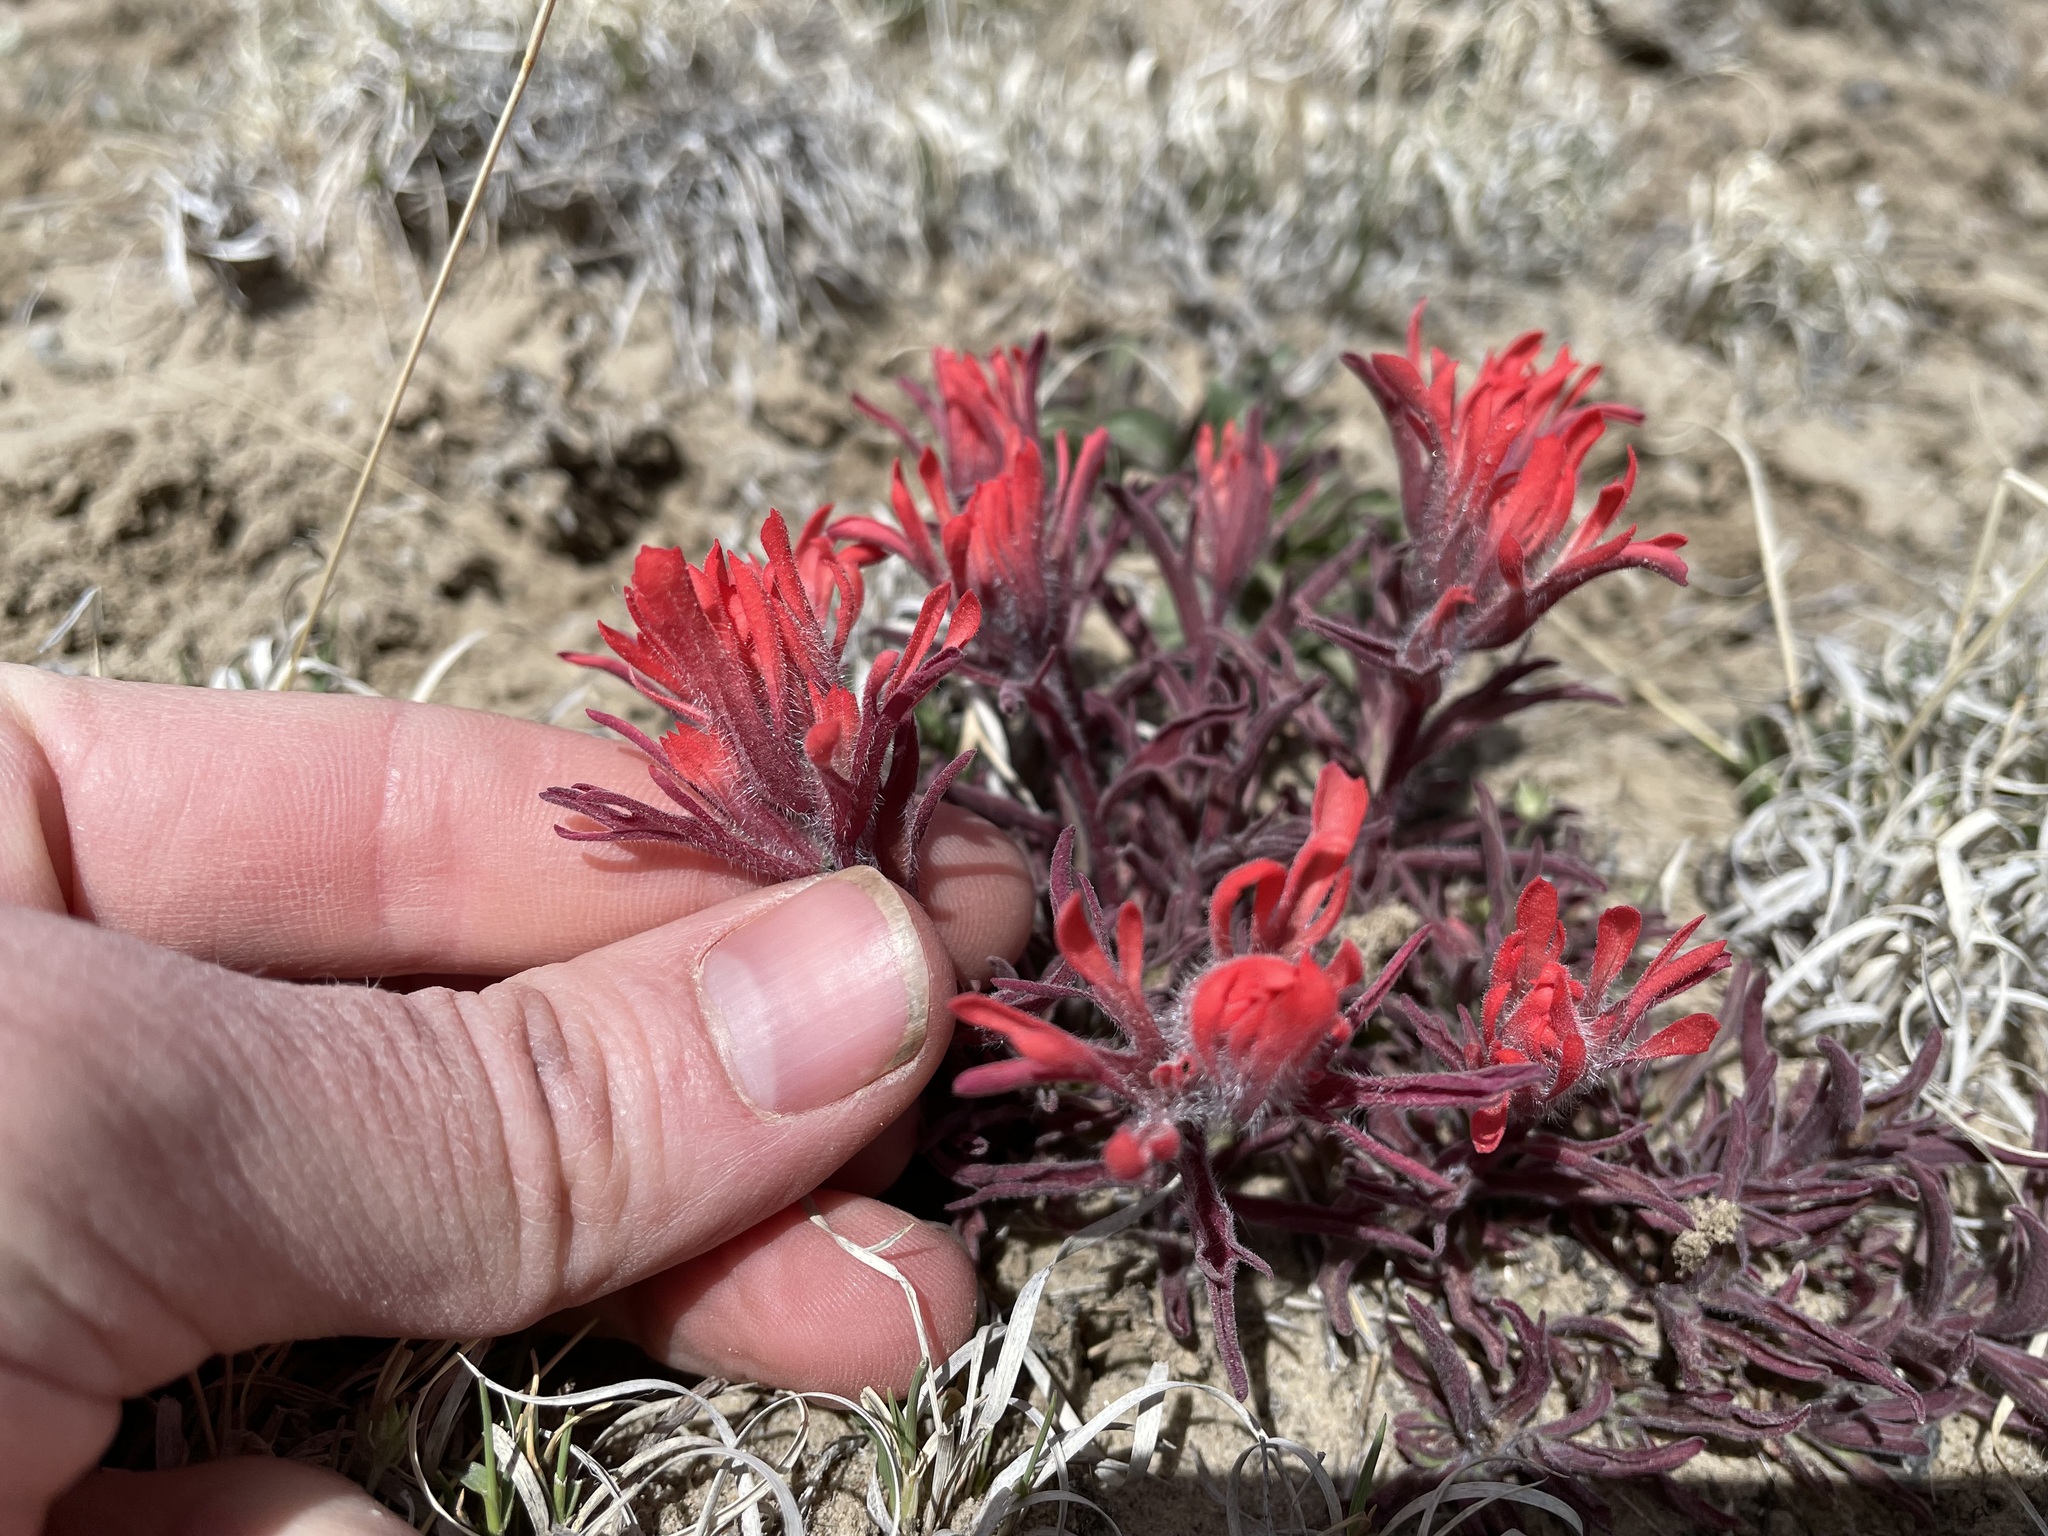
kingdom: Plantae
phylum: Tracheophyta
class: Magnoliopsida
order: Lamiales
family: Orobanchaceae
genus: Castilleja
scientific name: Castilleja chromosa
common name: Desert paintbrush
